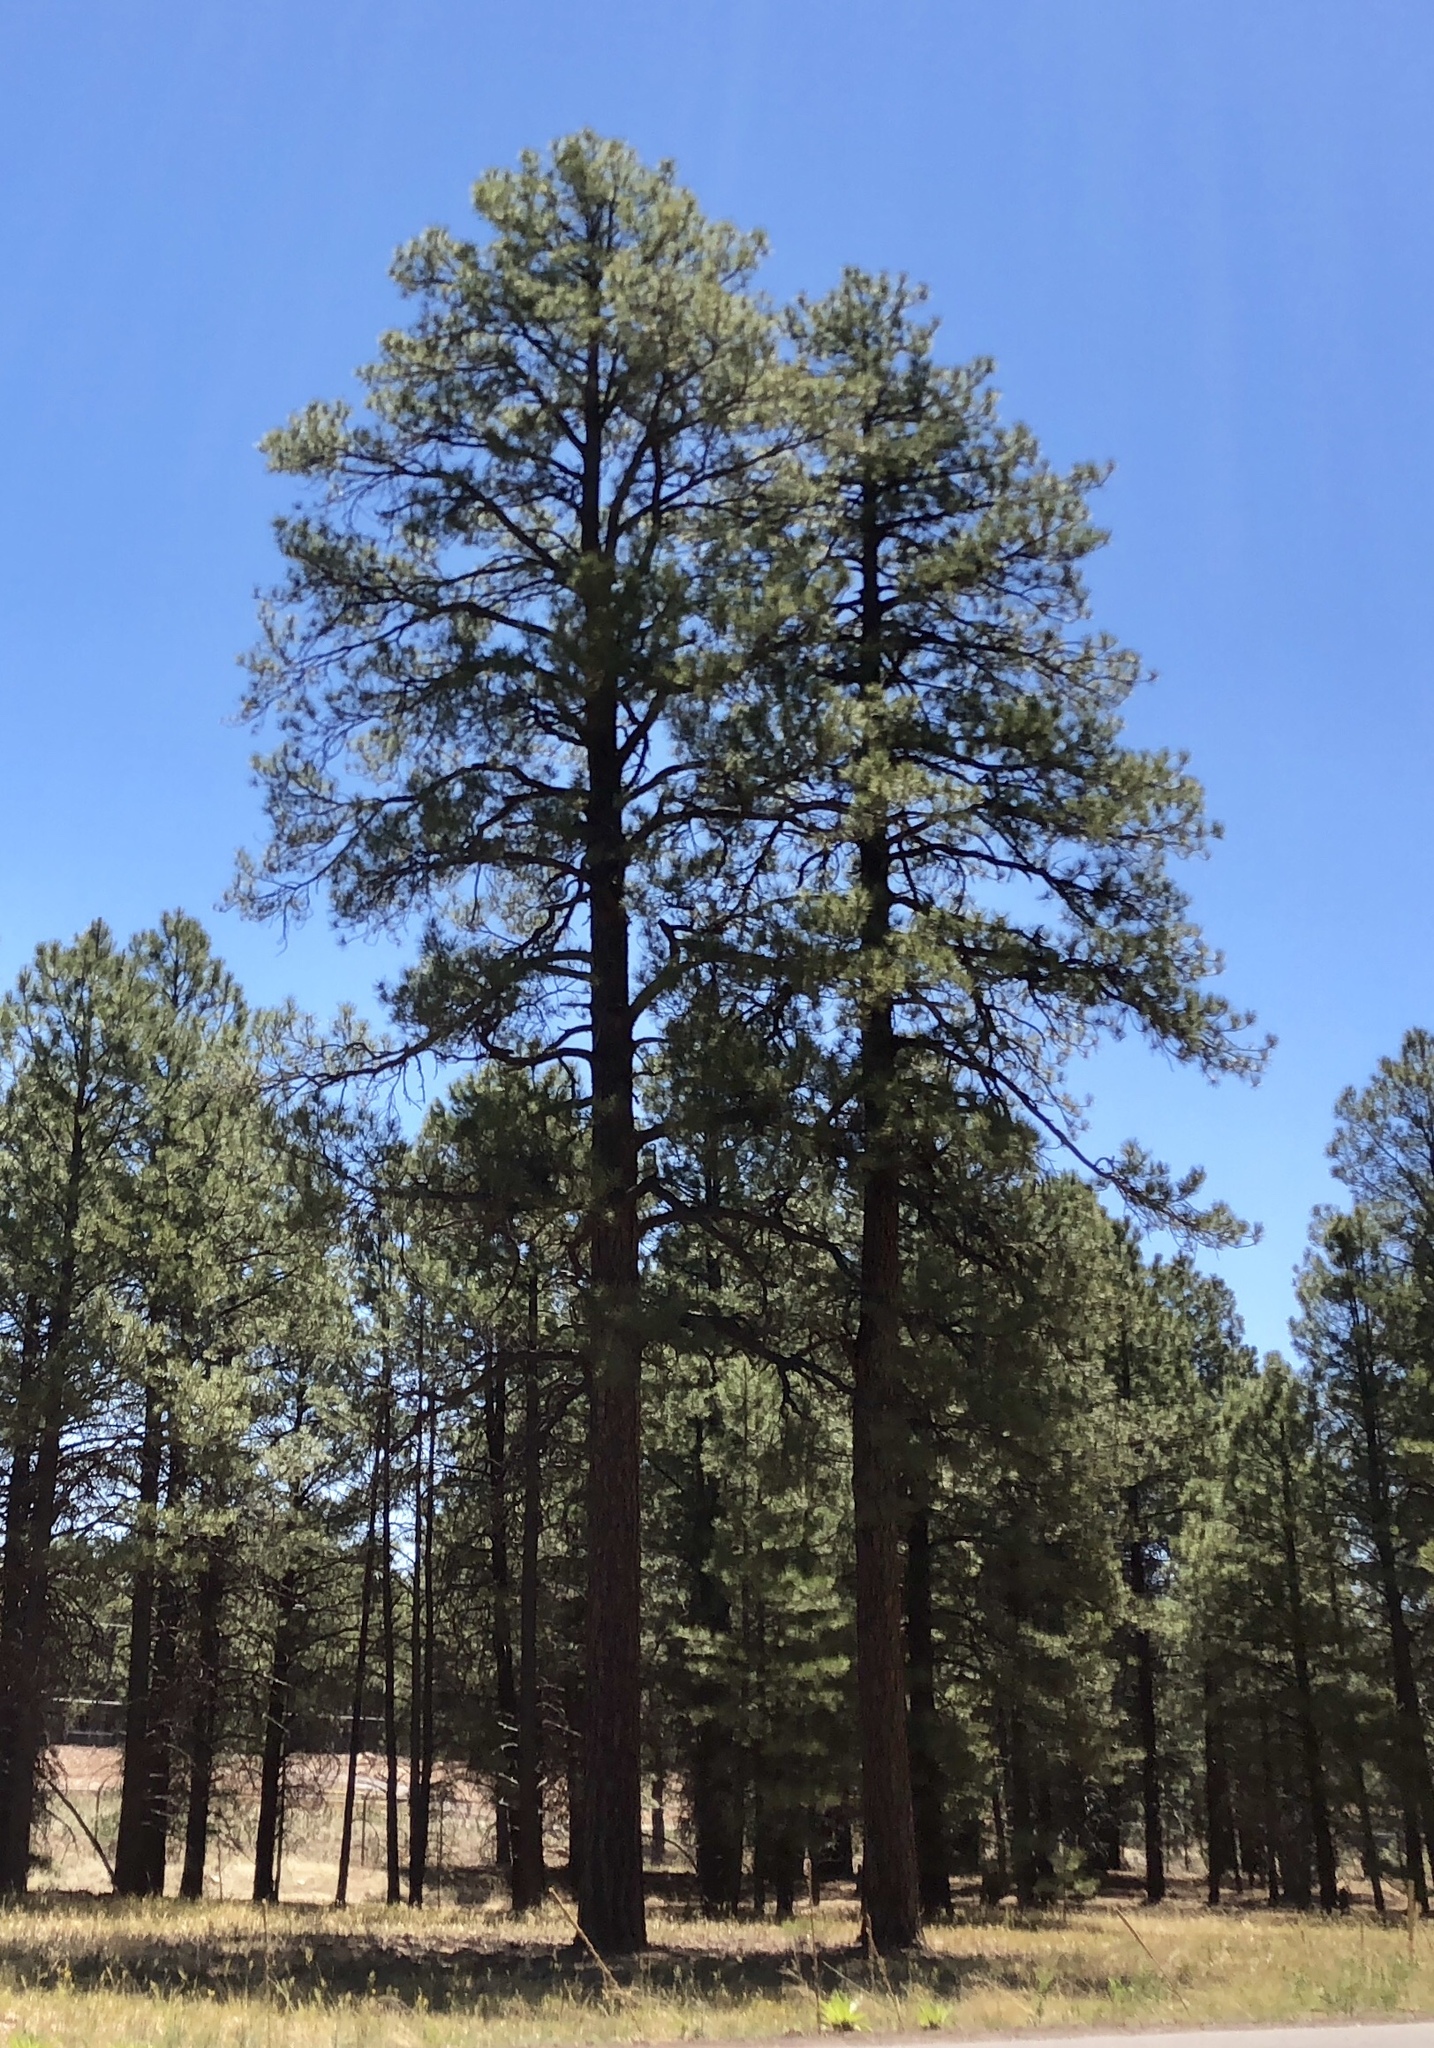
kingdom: Plantae
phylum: Tracheophyta
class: Pinopsida
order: Pinales
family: Pinaceae
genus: Pinus
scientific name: Pinus ponderosa
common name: Western yellow-pine
